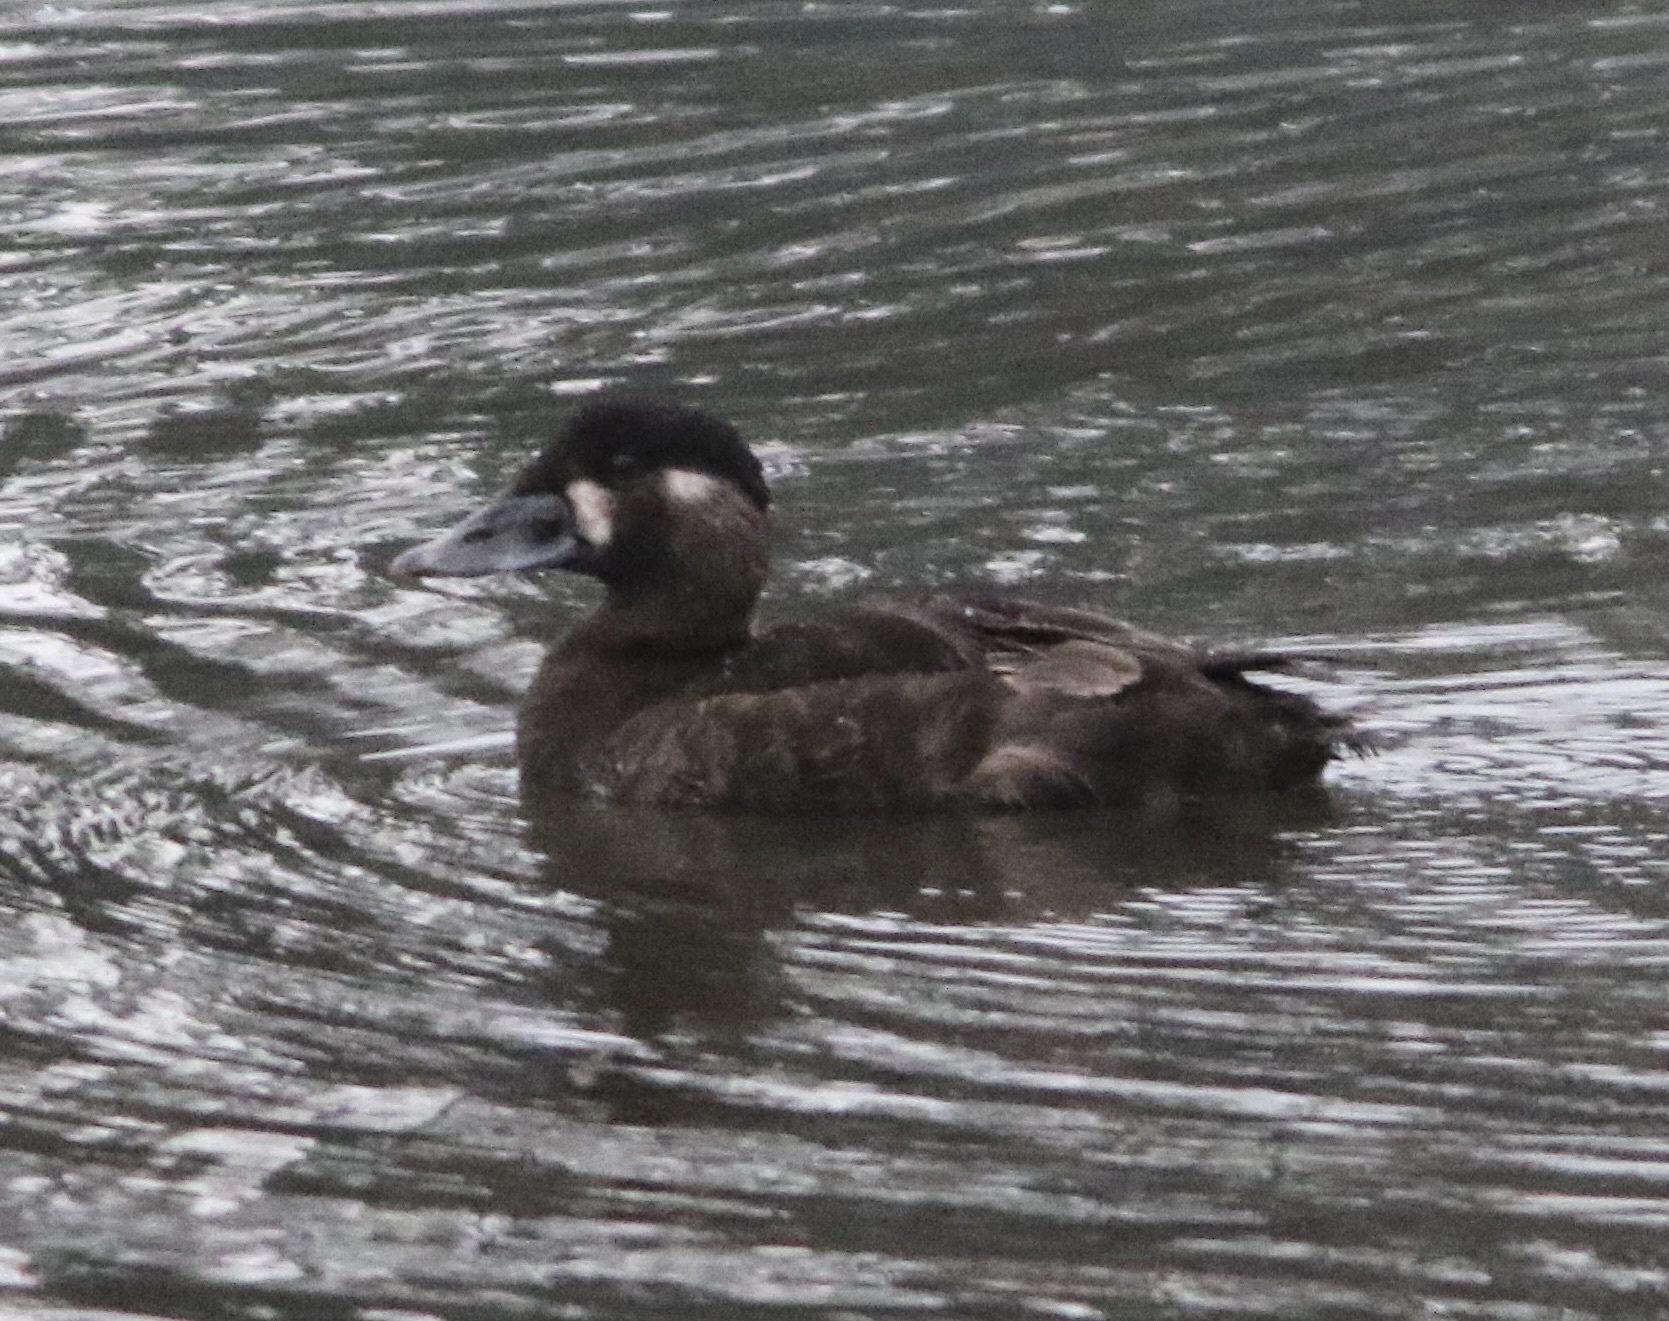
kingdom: Animalia
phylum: Chordata
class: Aves
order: Anseriformes
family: Anatidae
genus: Melanitta
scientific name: Melanitta perspicillata
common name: Surf scoter
